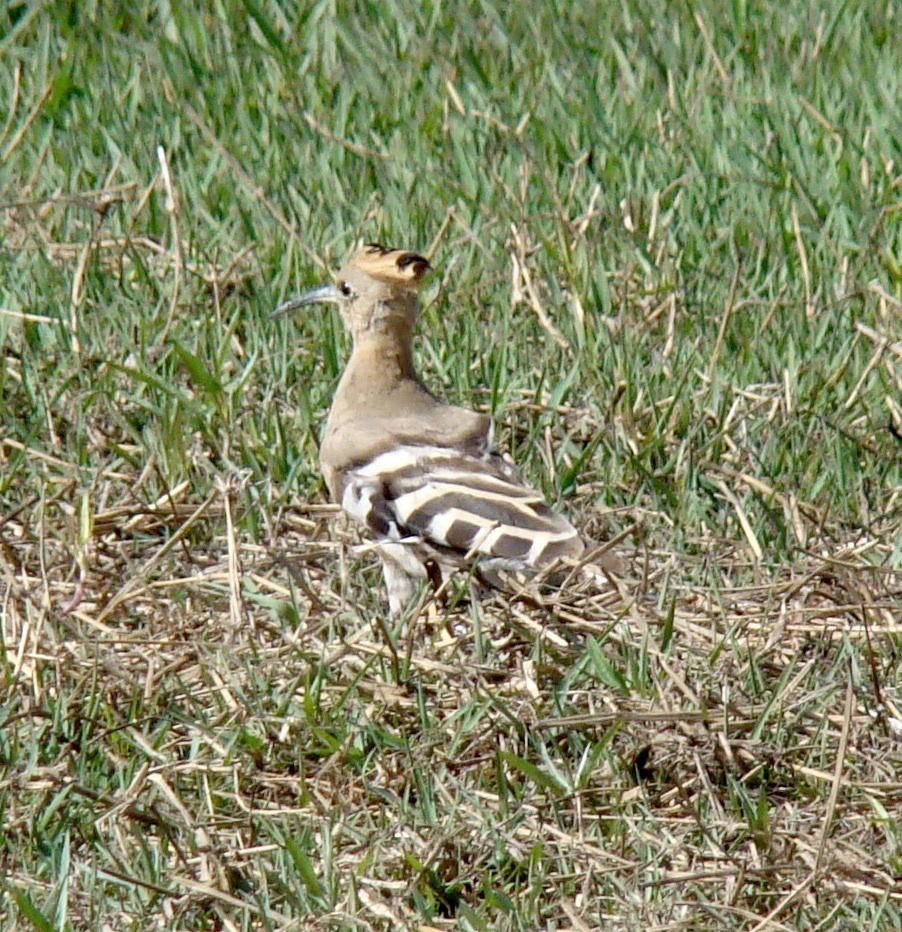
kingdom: Animalia
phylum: Chordata
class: Aves
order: Bucerotiformes
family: Upupidae
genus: Upupa
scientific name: Upupa epops
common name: Eurasian hoopoe
